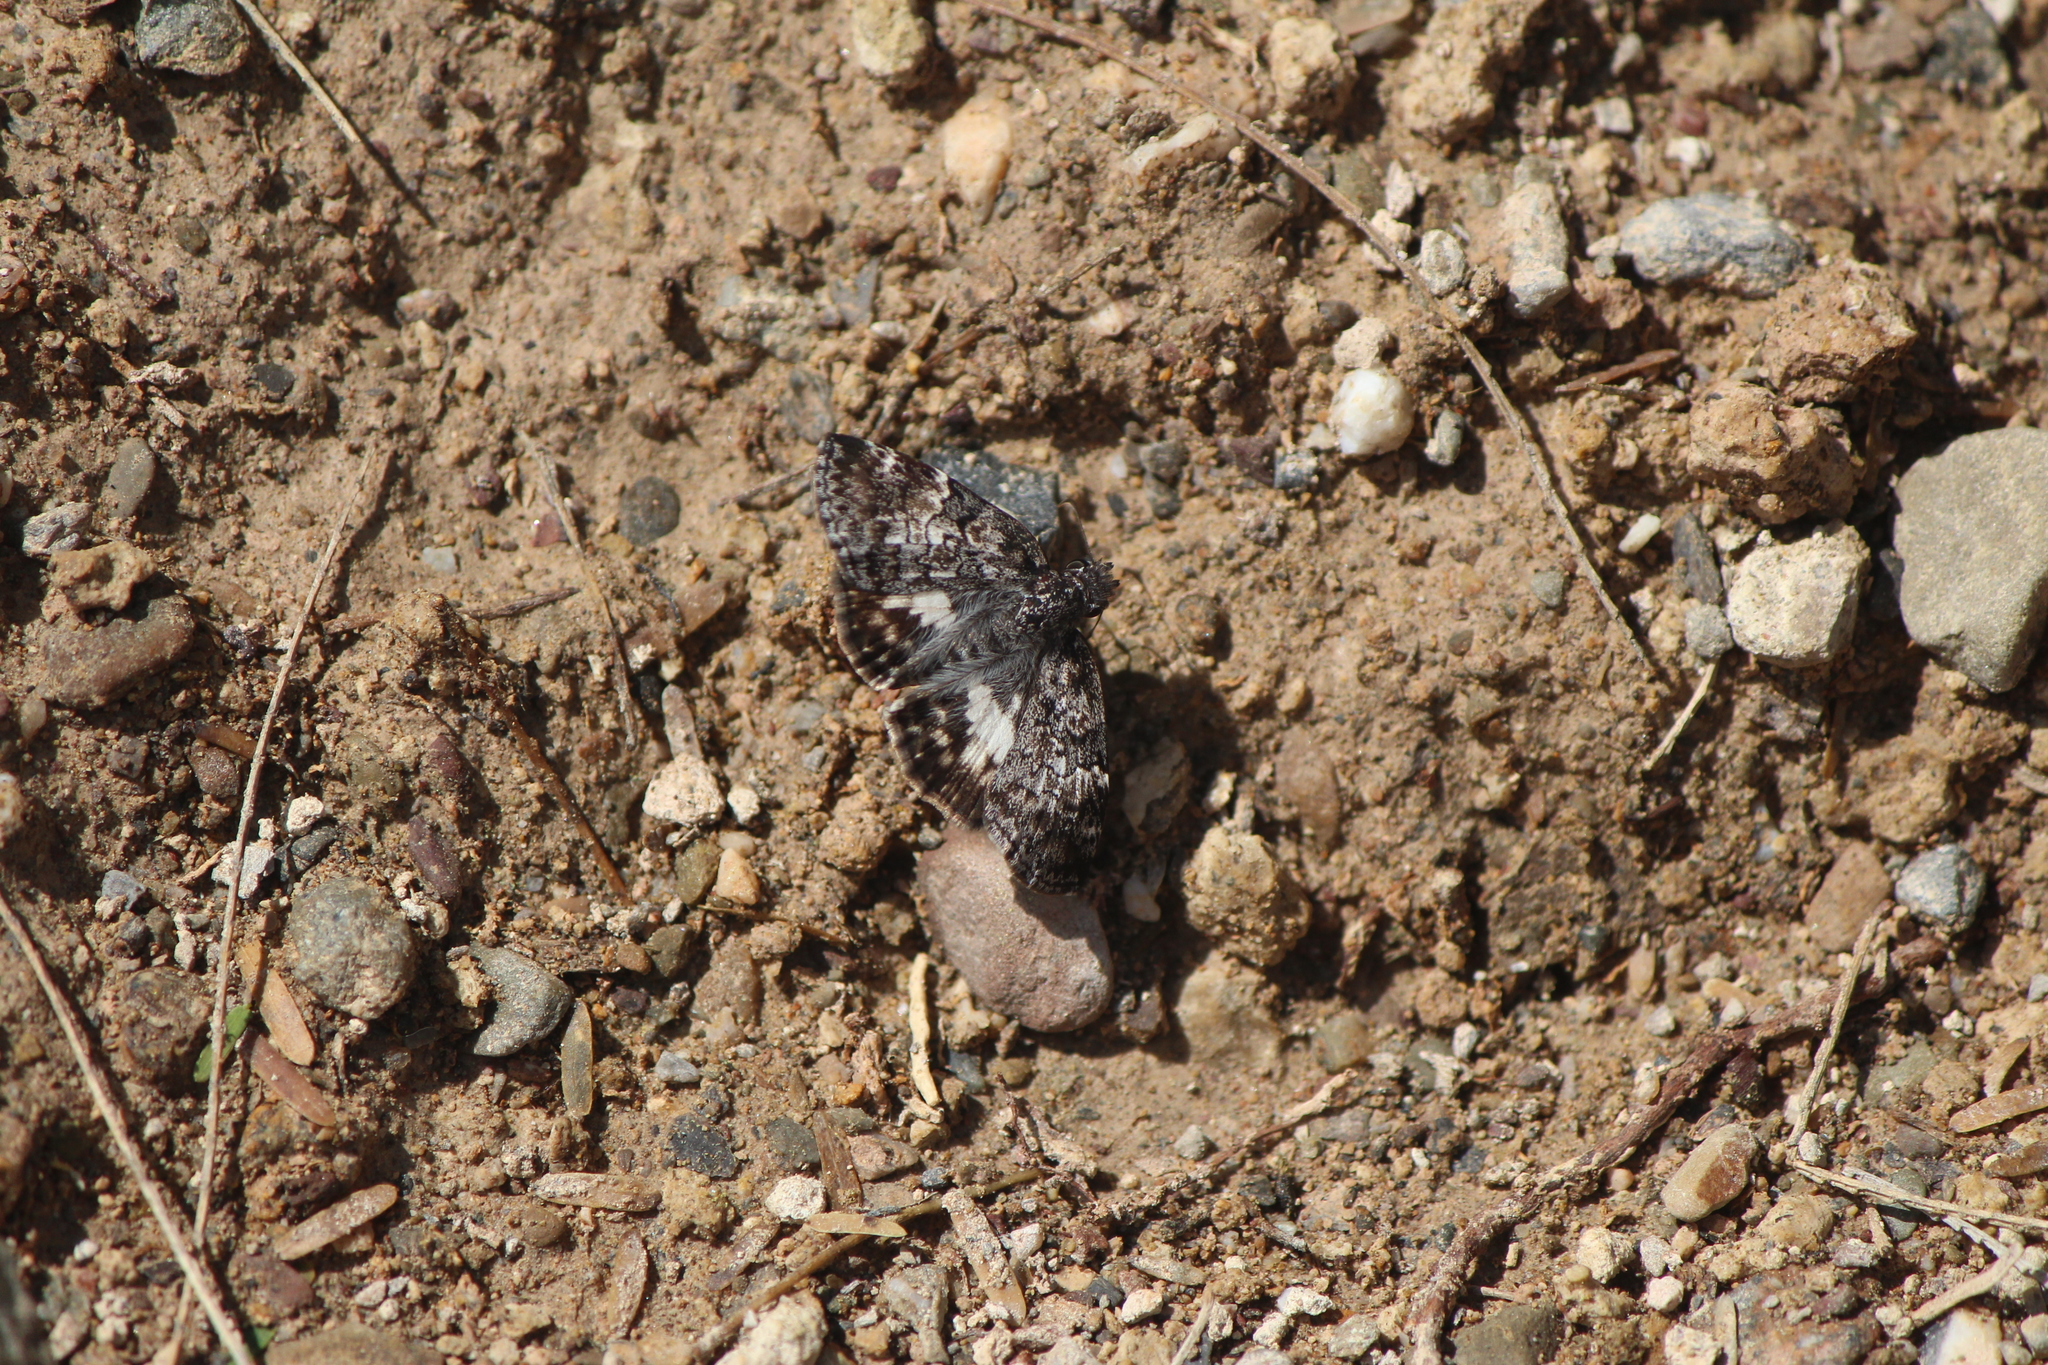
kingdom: Animalia
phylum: Arthropoda
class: Insecta
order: Lepidoptera
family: Hesperiidae
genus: Chiothion
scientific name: Chiothion georgina
